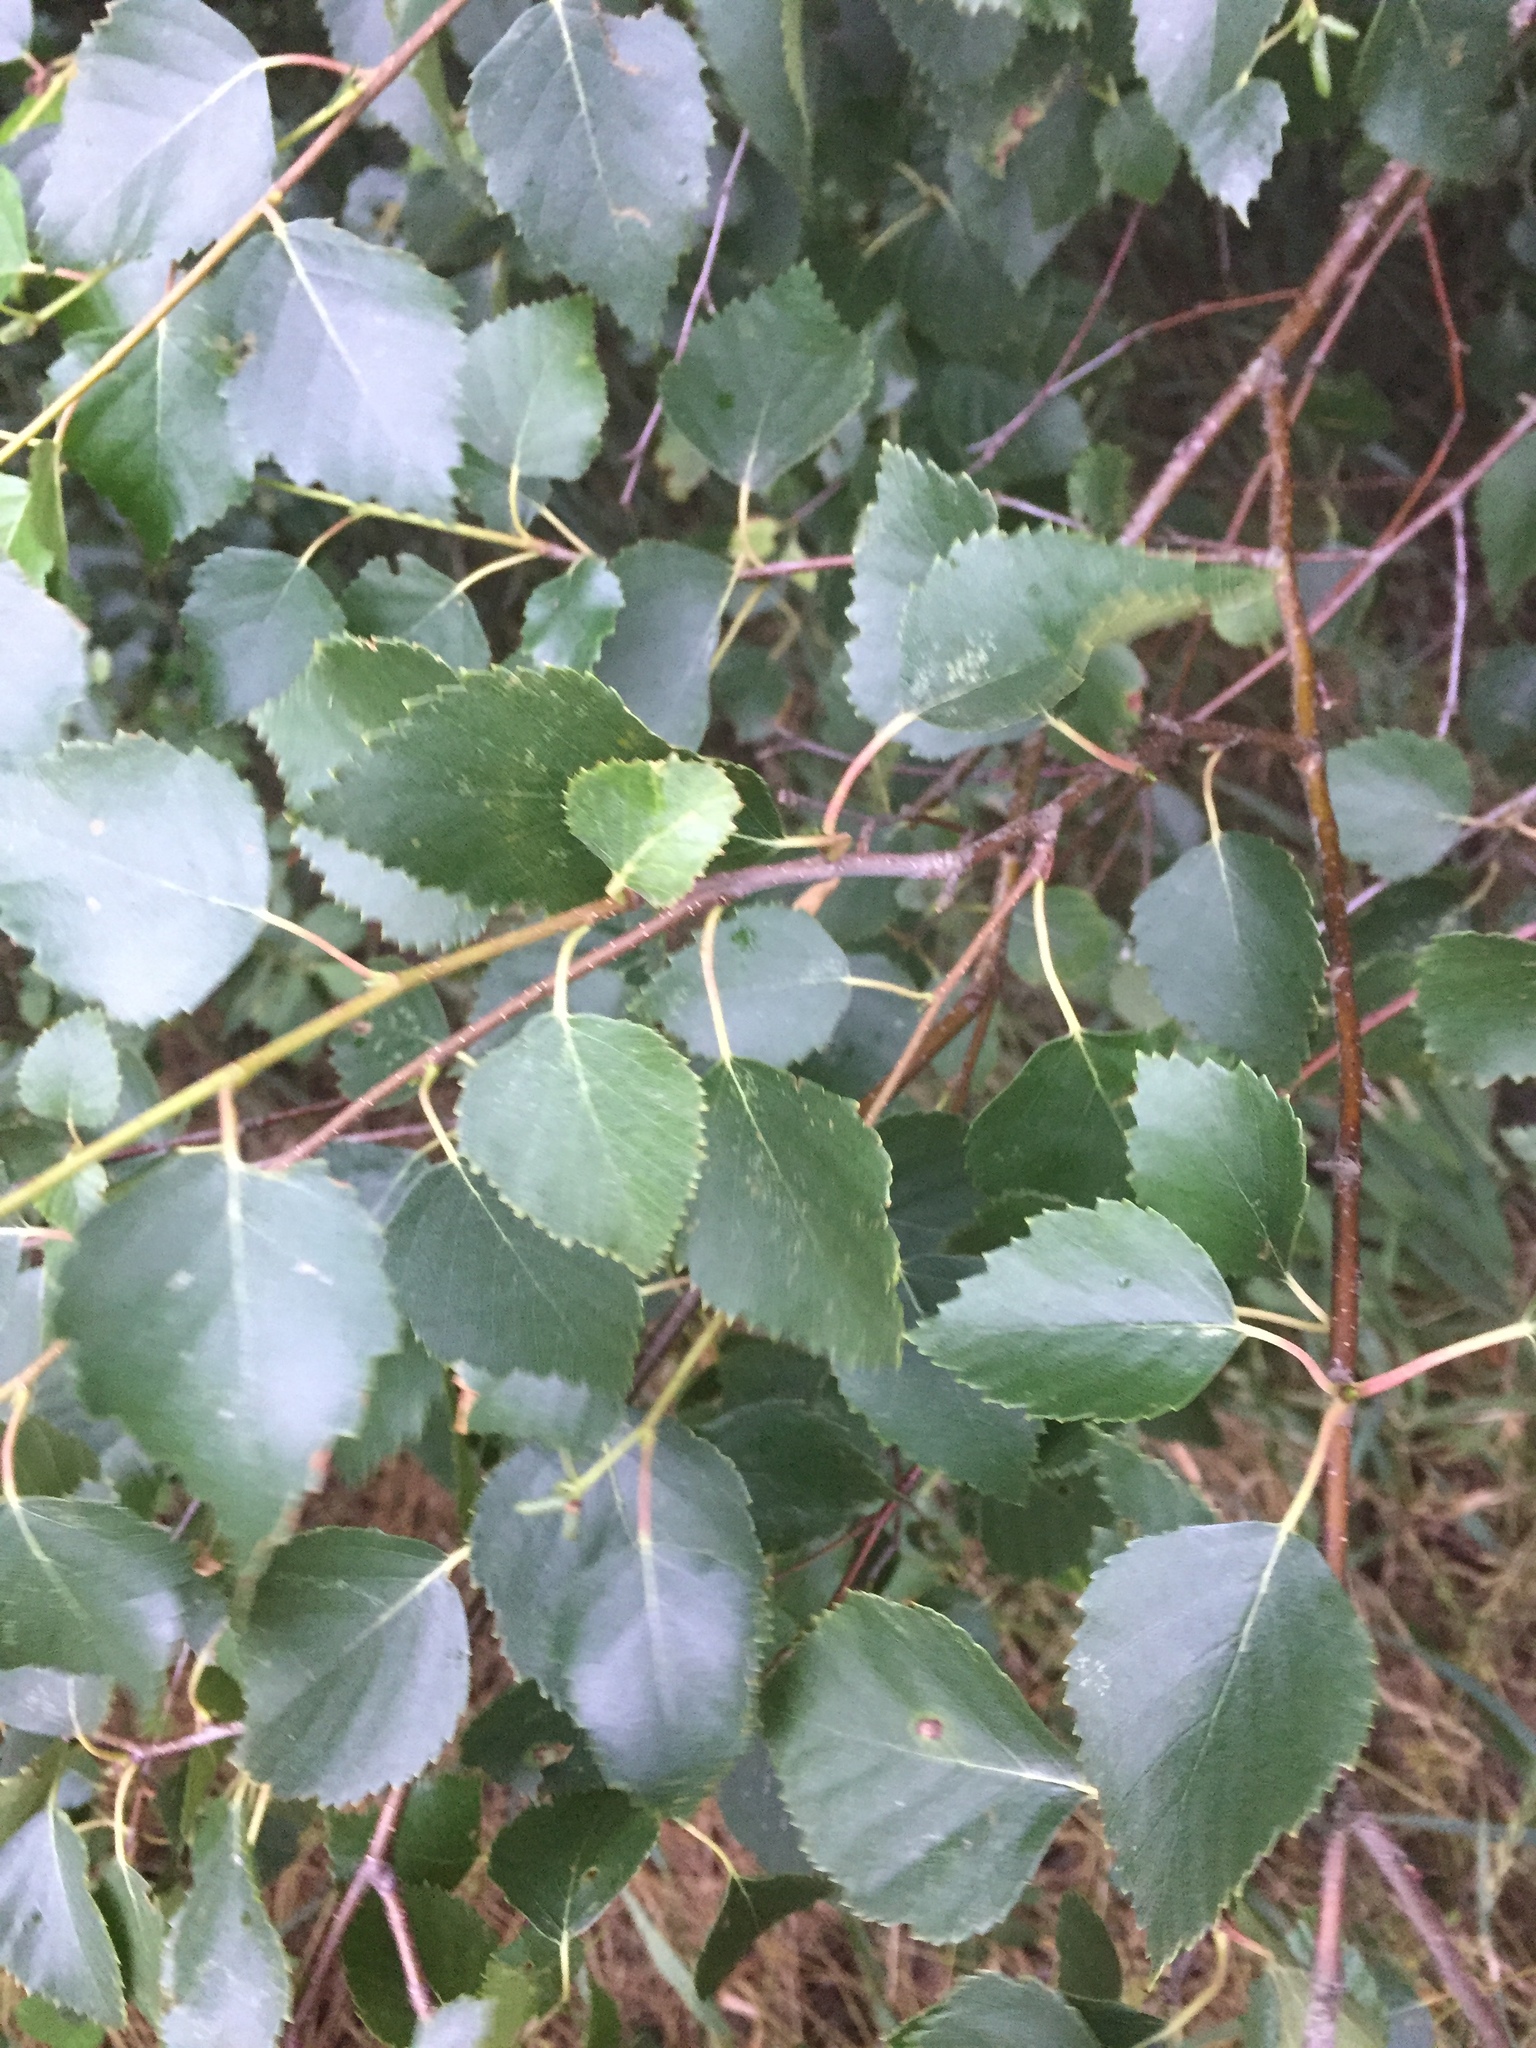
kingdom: Plantae
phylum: Tracheophyta
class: Magnoliopsida
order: Fagales
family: Betulaceae
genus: Betula
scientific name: Betula pendula
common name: Silver birch
